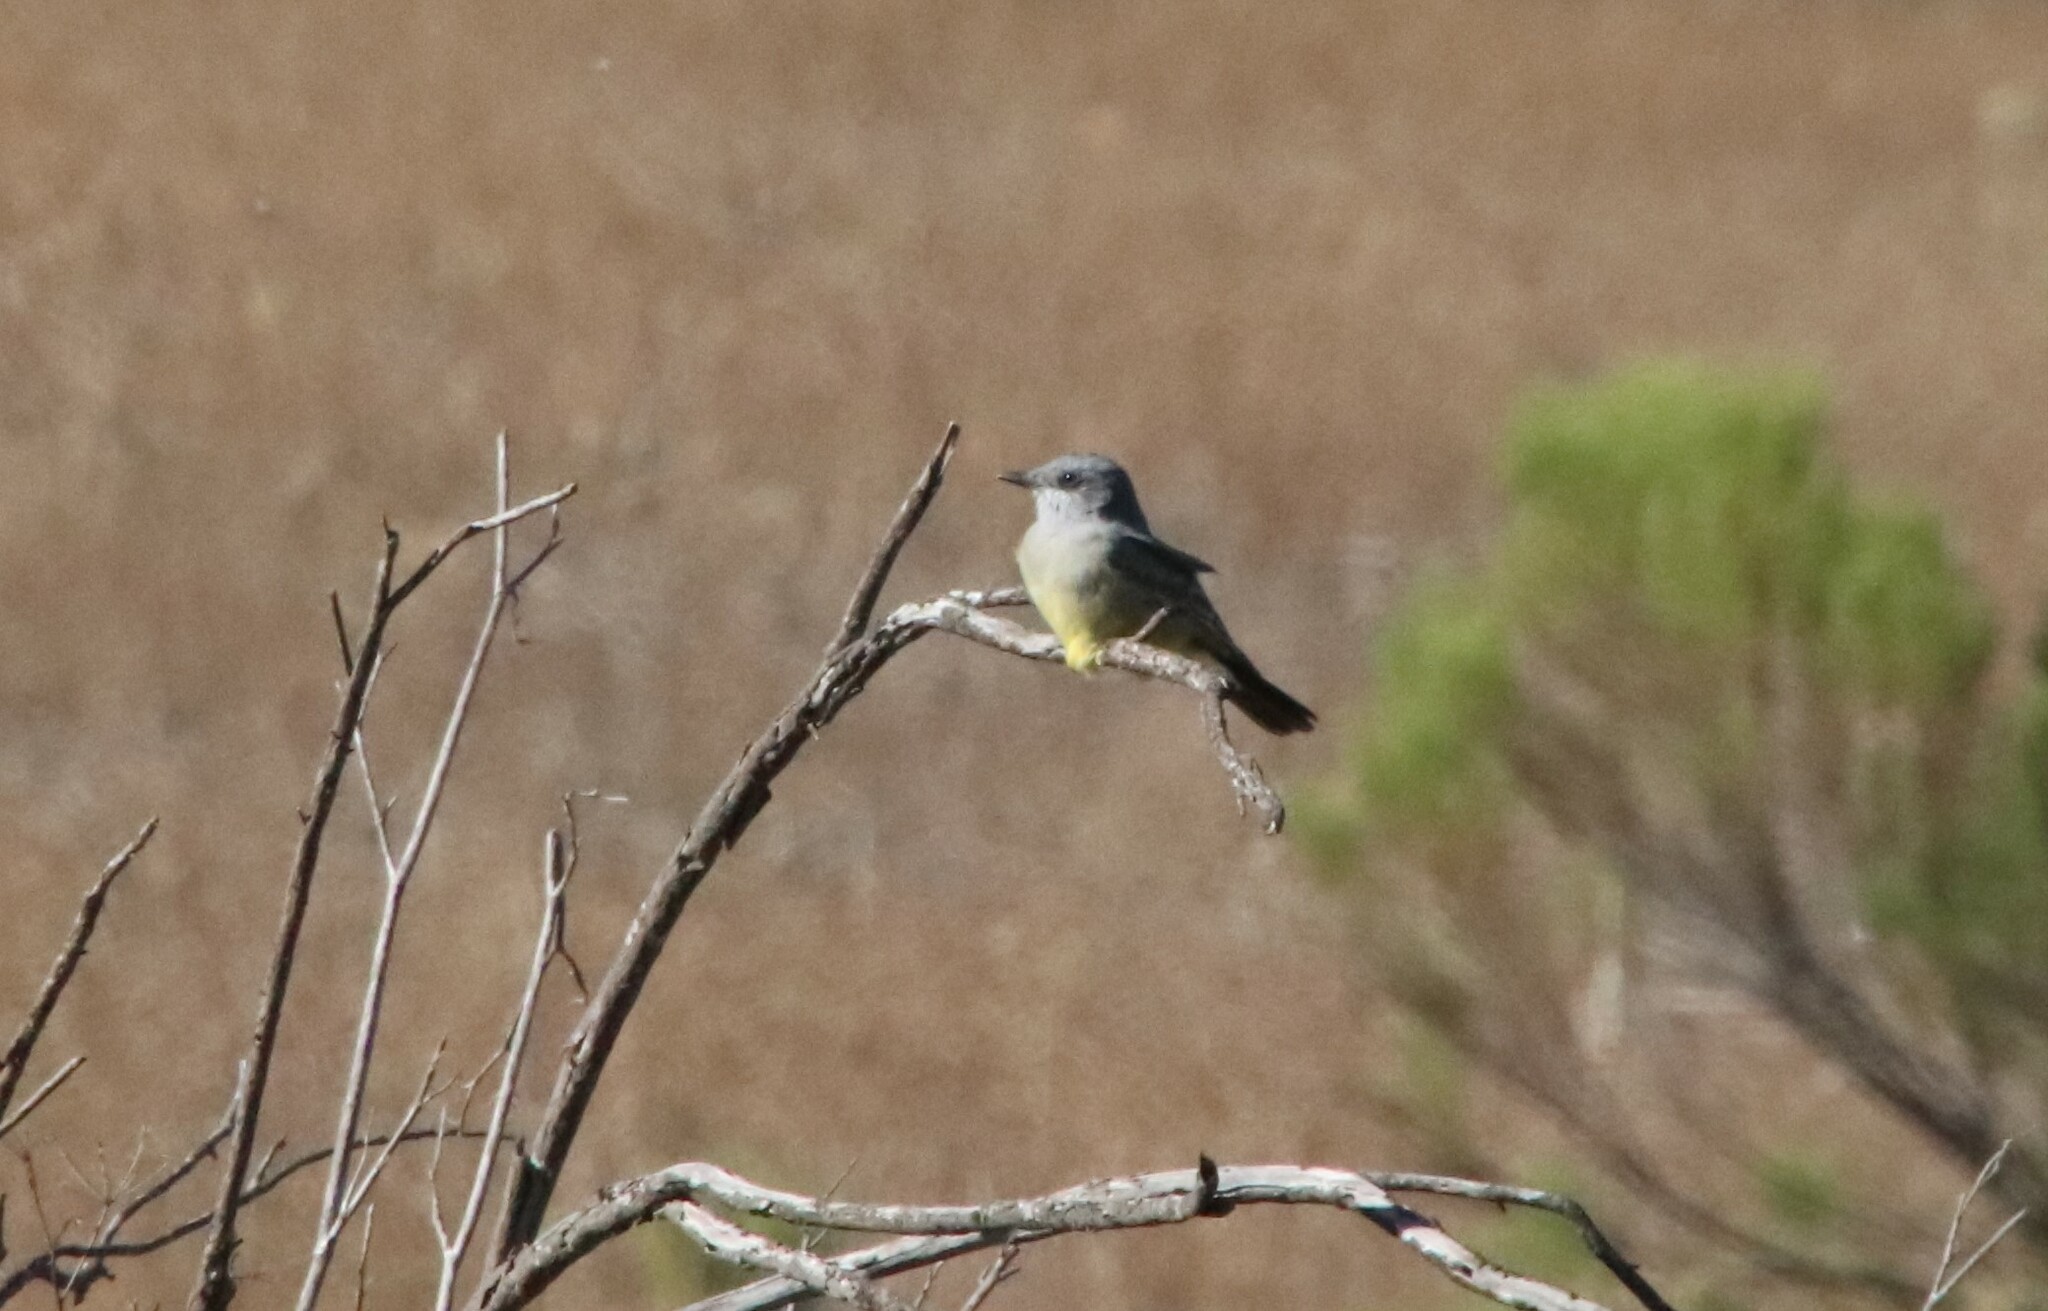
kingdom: Animalia
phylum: Chordata
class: Aves
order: Passeriformes
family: Tyrannidae
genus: Tyrannus
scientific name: Tyrannus vociferans
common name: Cassin's kingbird
